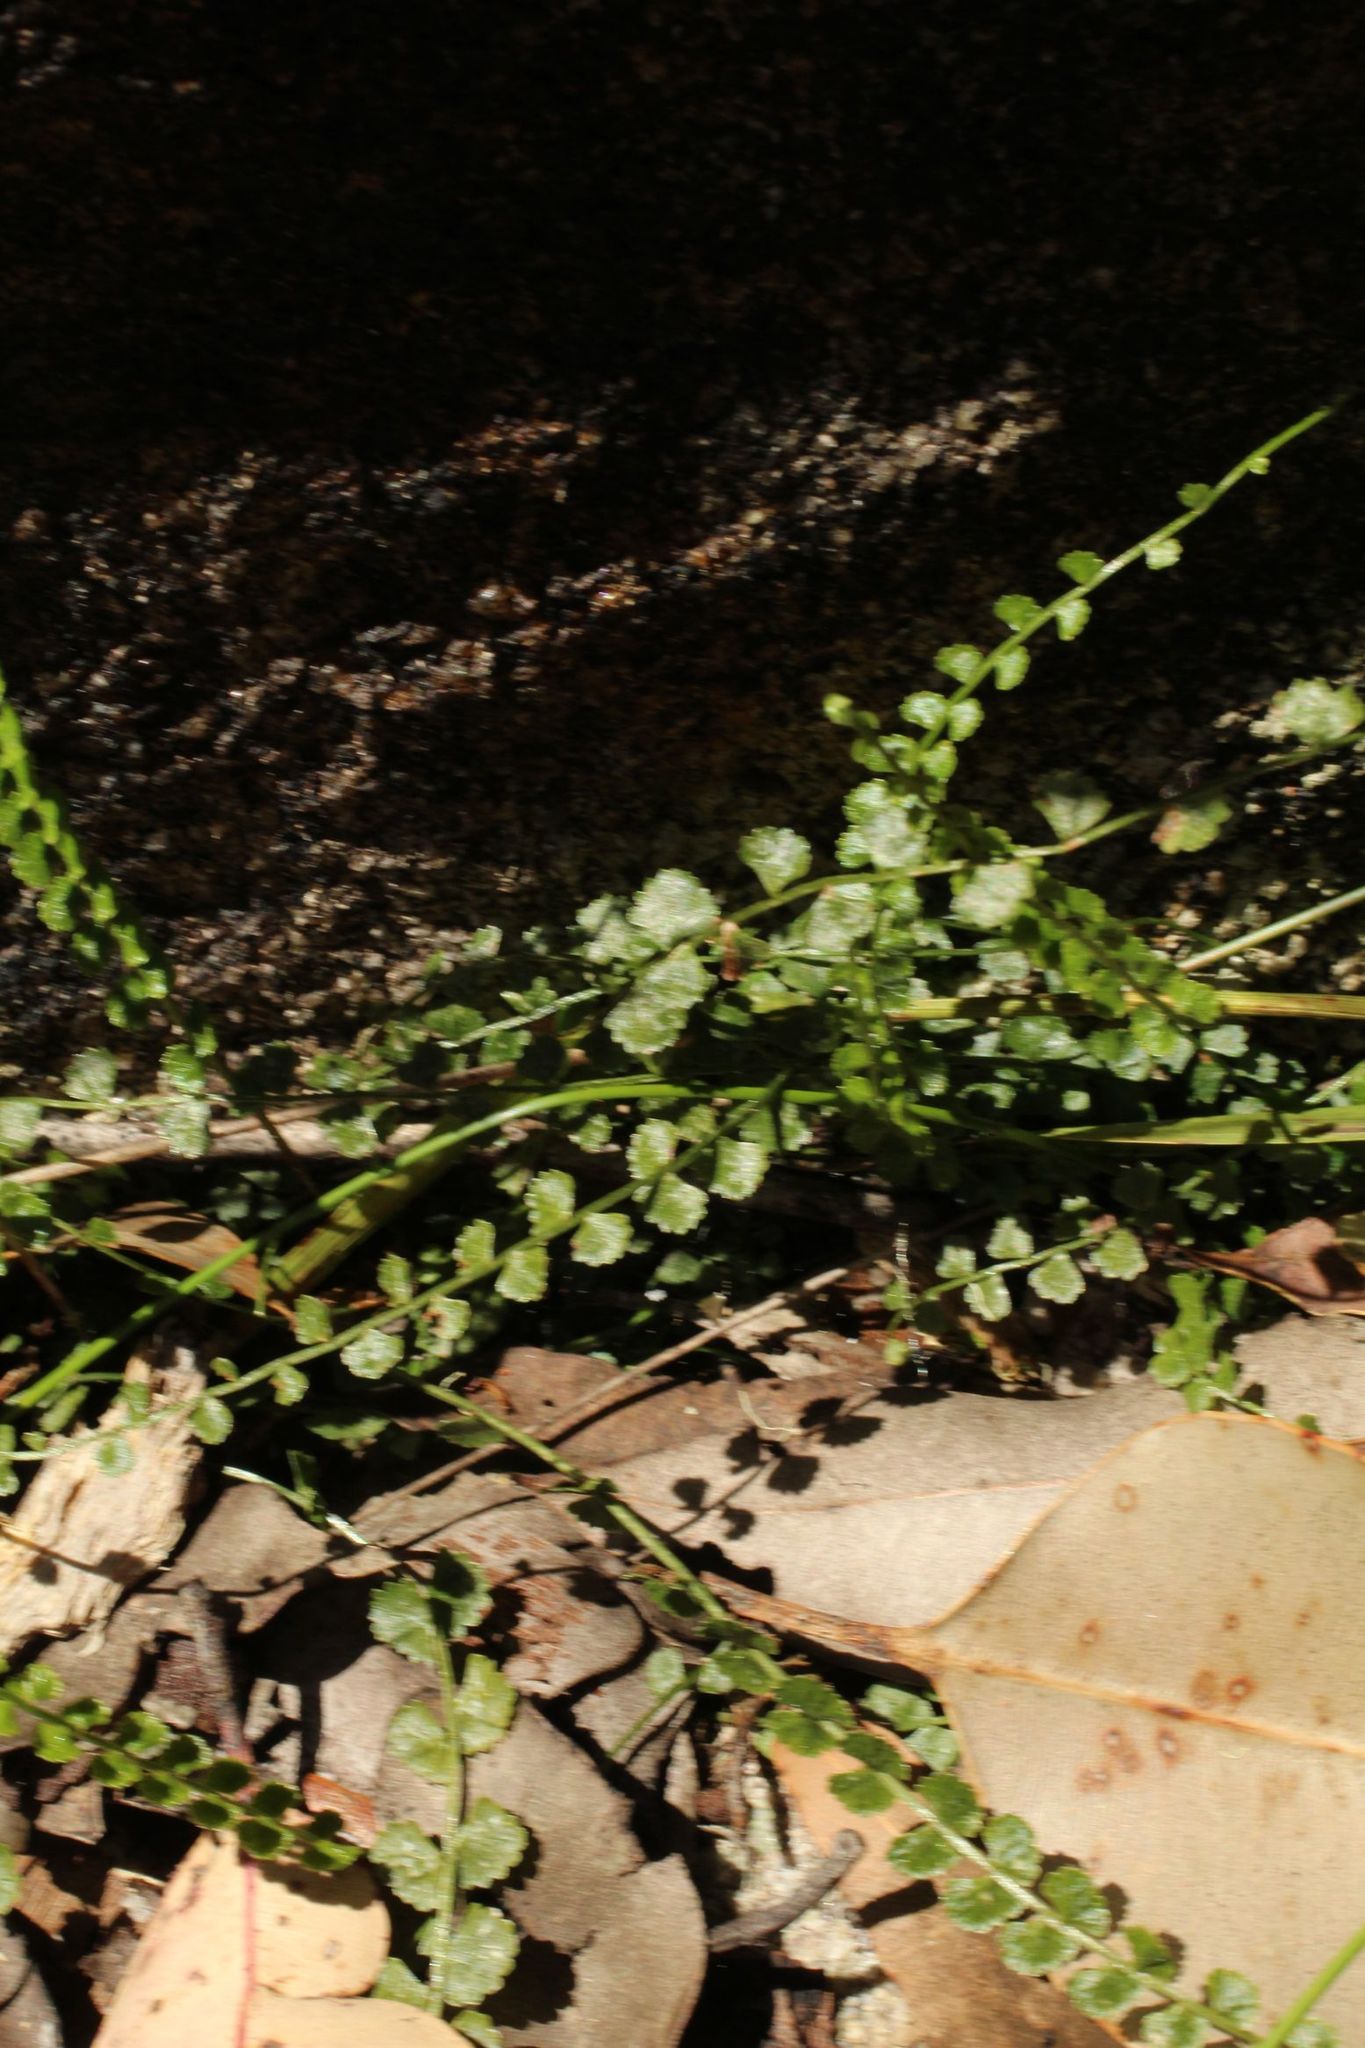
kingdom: Plantae
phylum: Tracheophyta
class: Polypodiopsida
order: Polypodiales
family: Aspleniaceae
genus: Asplenium
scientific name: Asplenium flabellifolium
